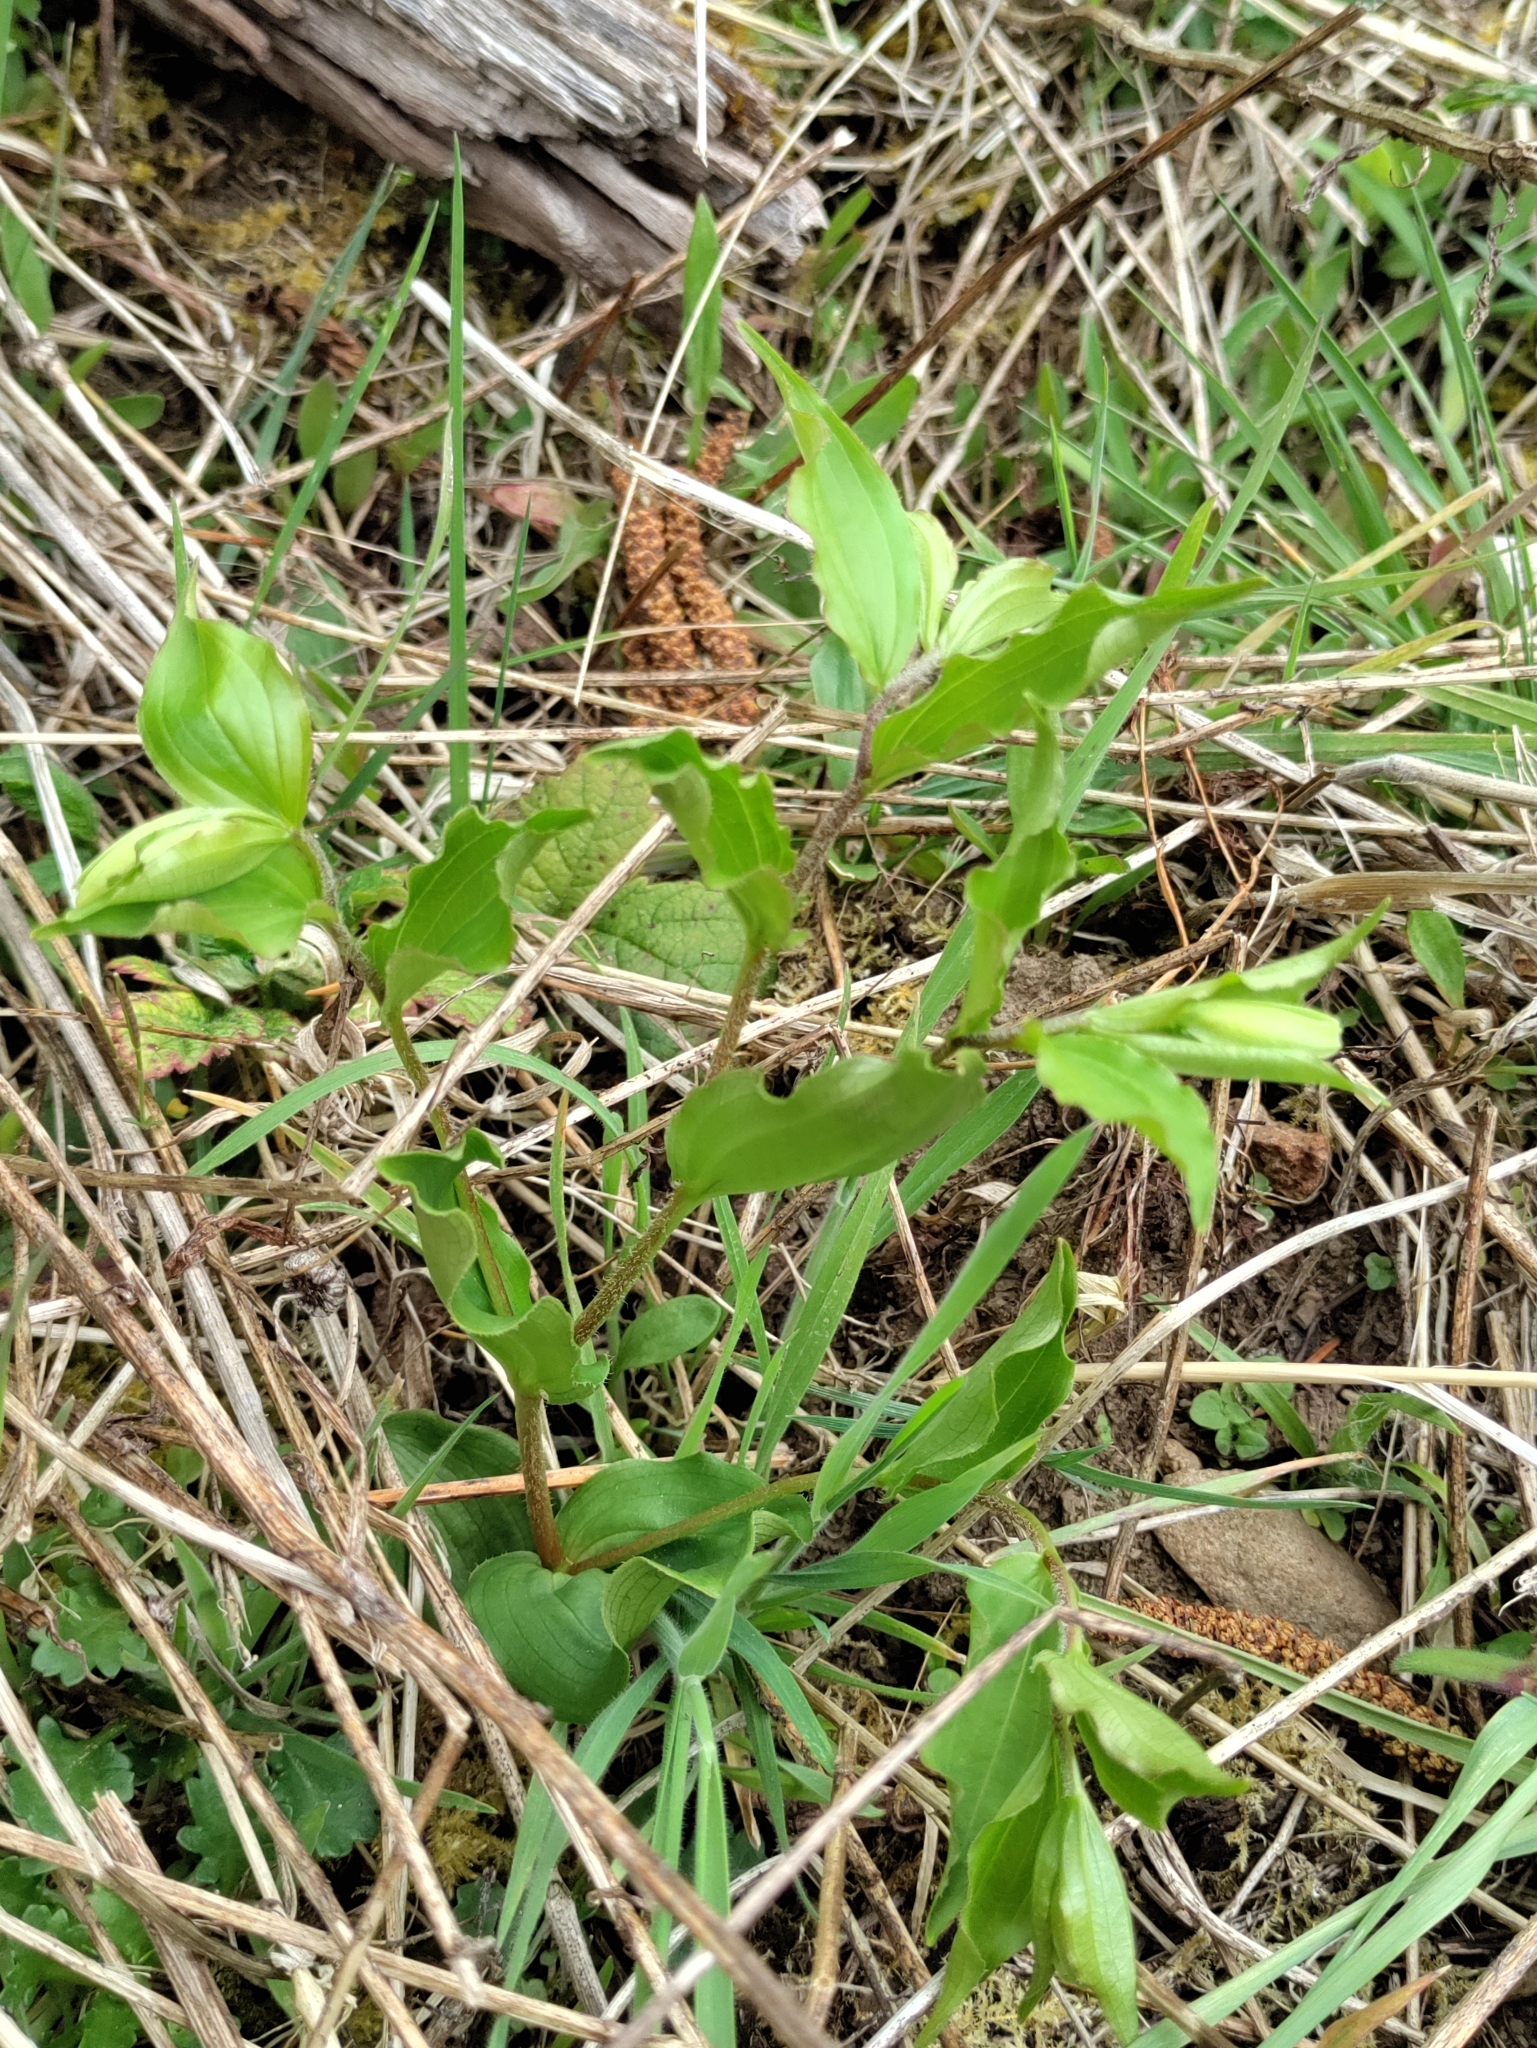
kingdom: Plantae
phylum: Tracheophyta
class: Liliopsida
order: Liliales
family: Liliaceae
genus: Prosartes
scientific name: Prosartes smithii
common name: Fairy-lantern
